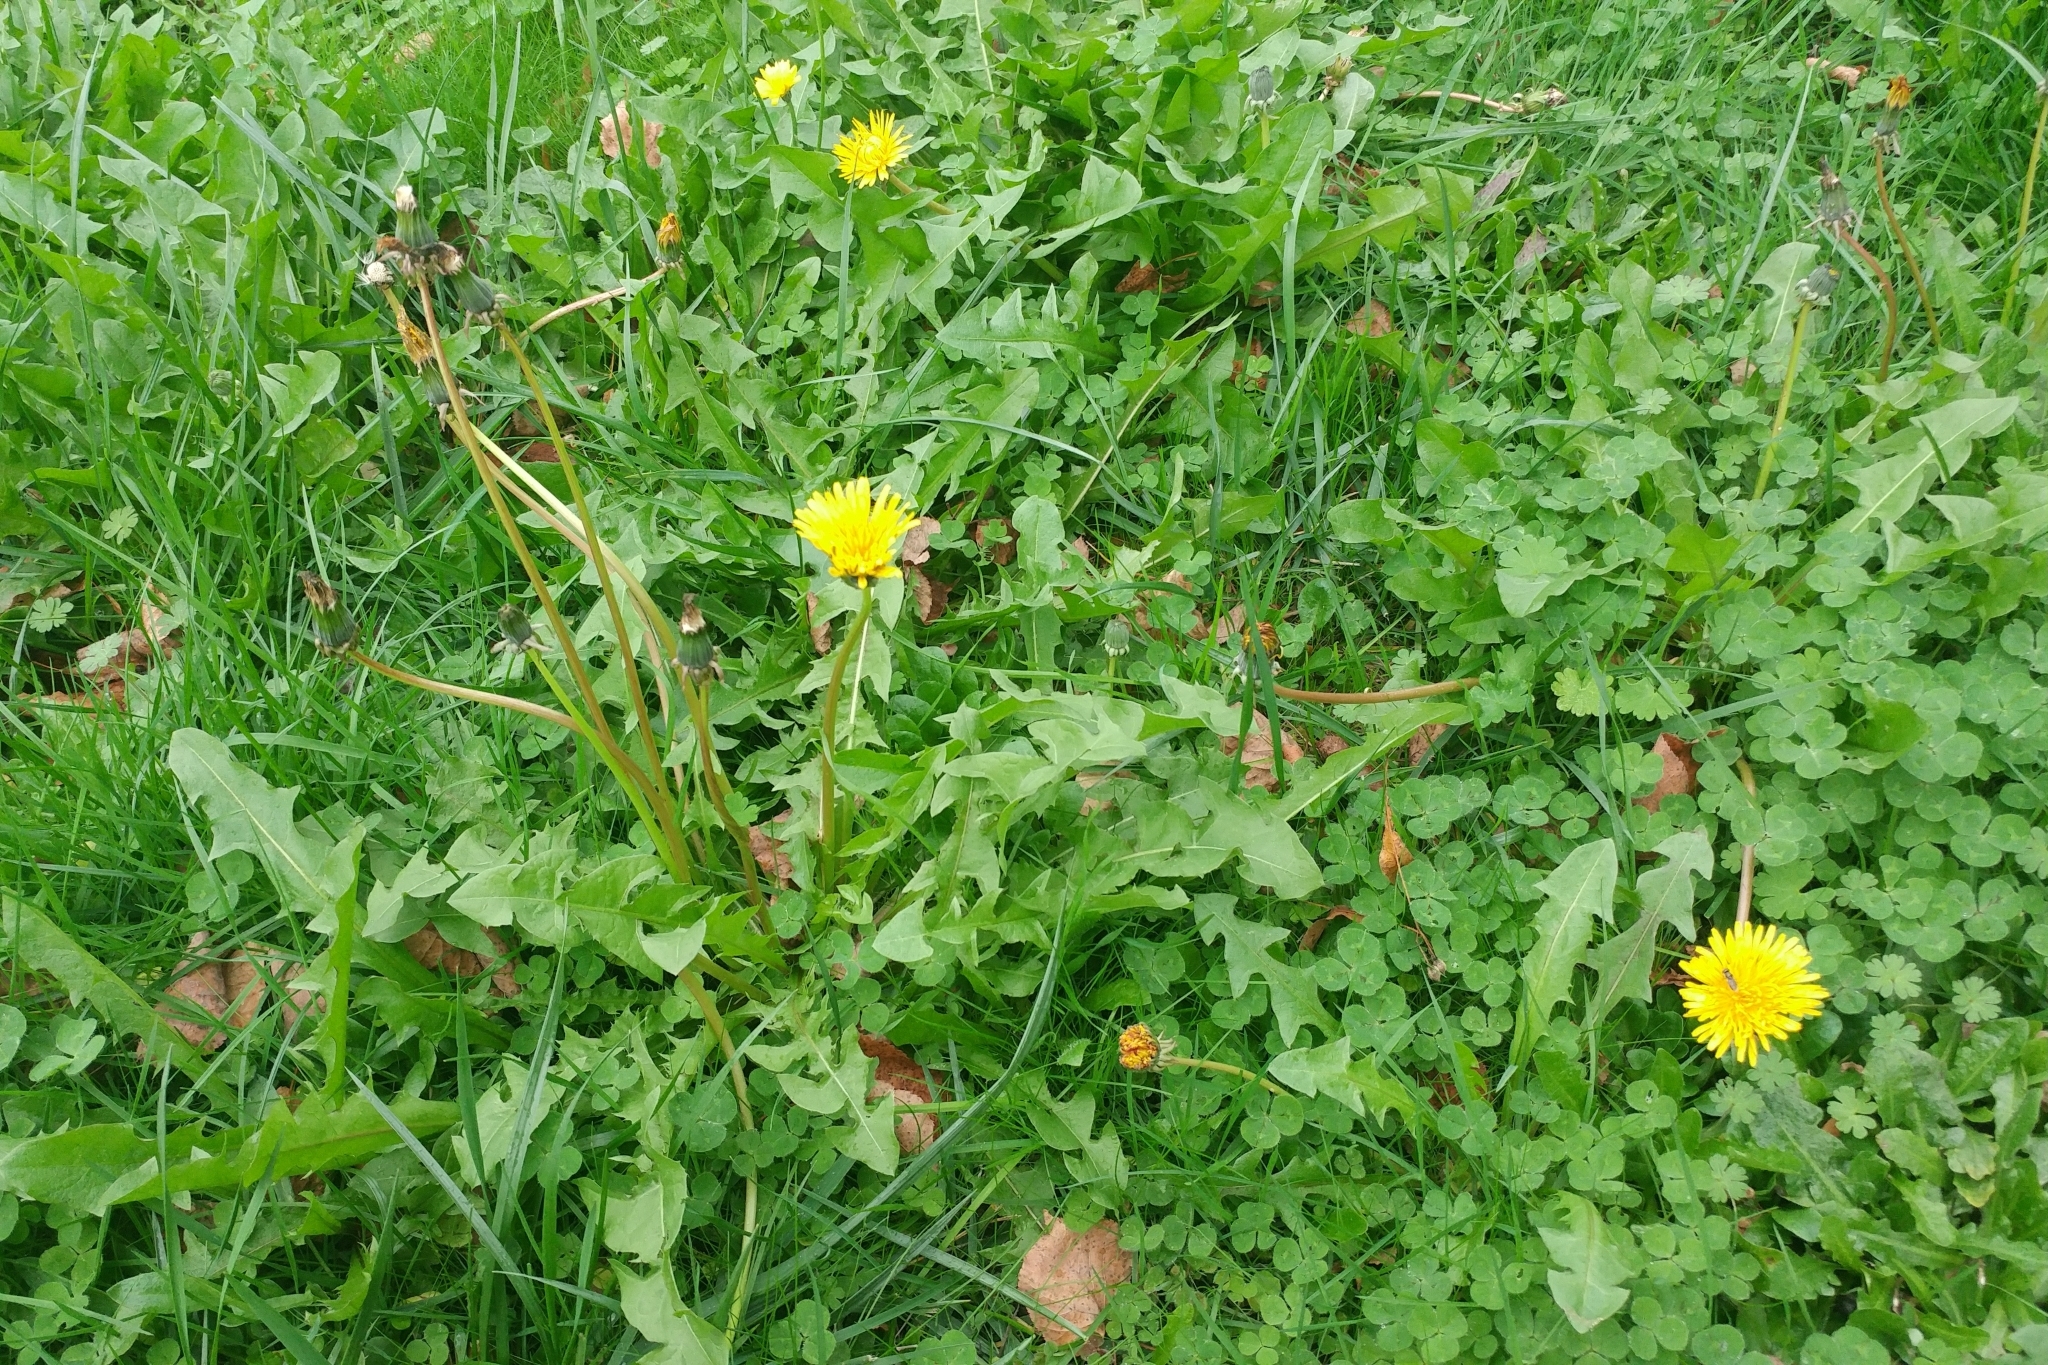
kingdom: Plantae
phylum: Tracheophyta
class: Magnoliopsida
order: Asterales
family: Asteraceae
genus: Taraxacum
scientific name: Taraxacum officinale
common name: Common dandelion
